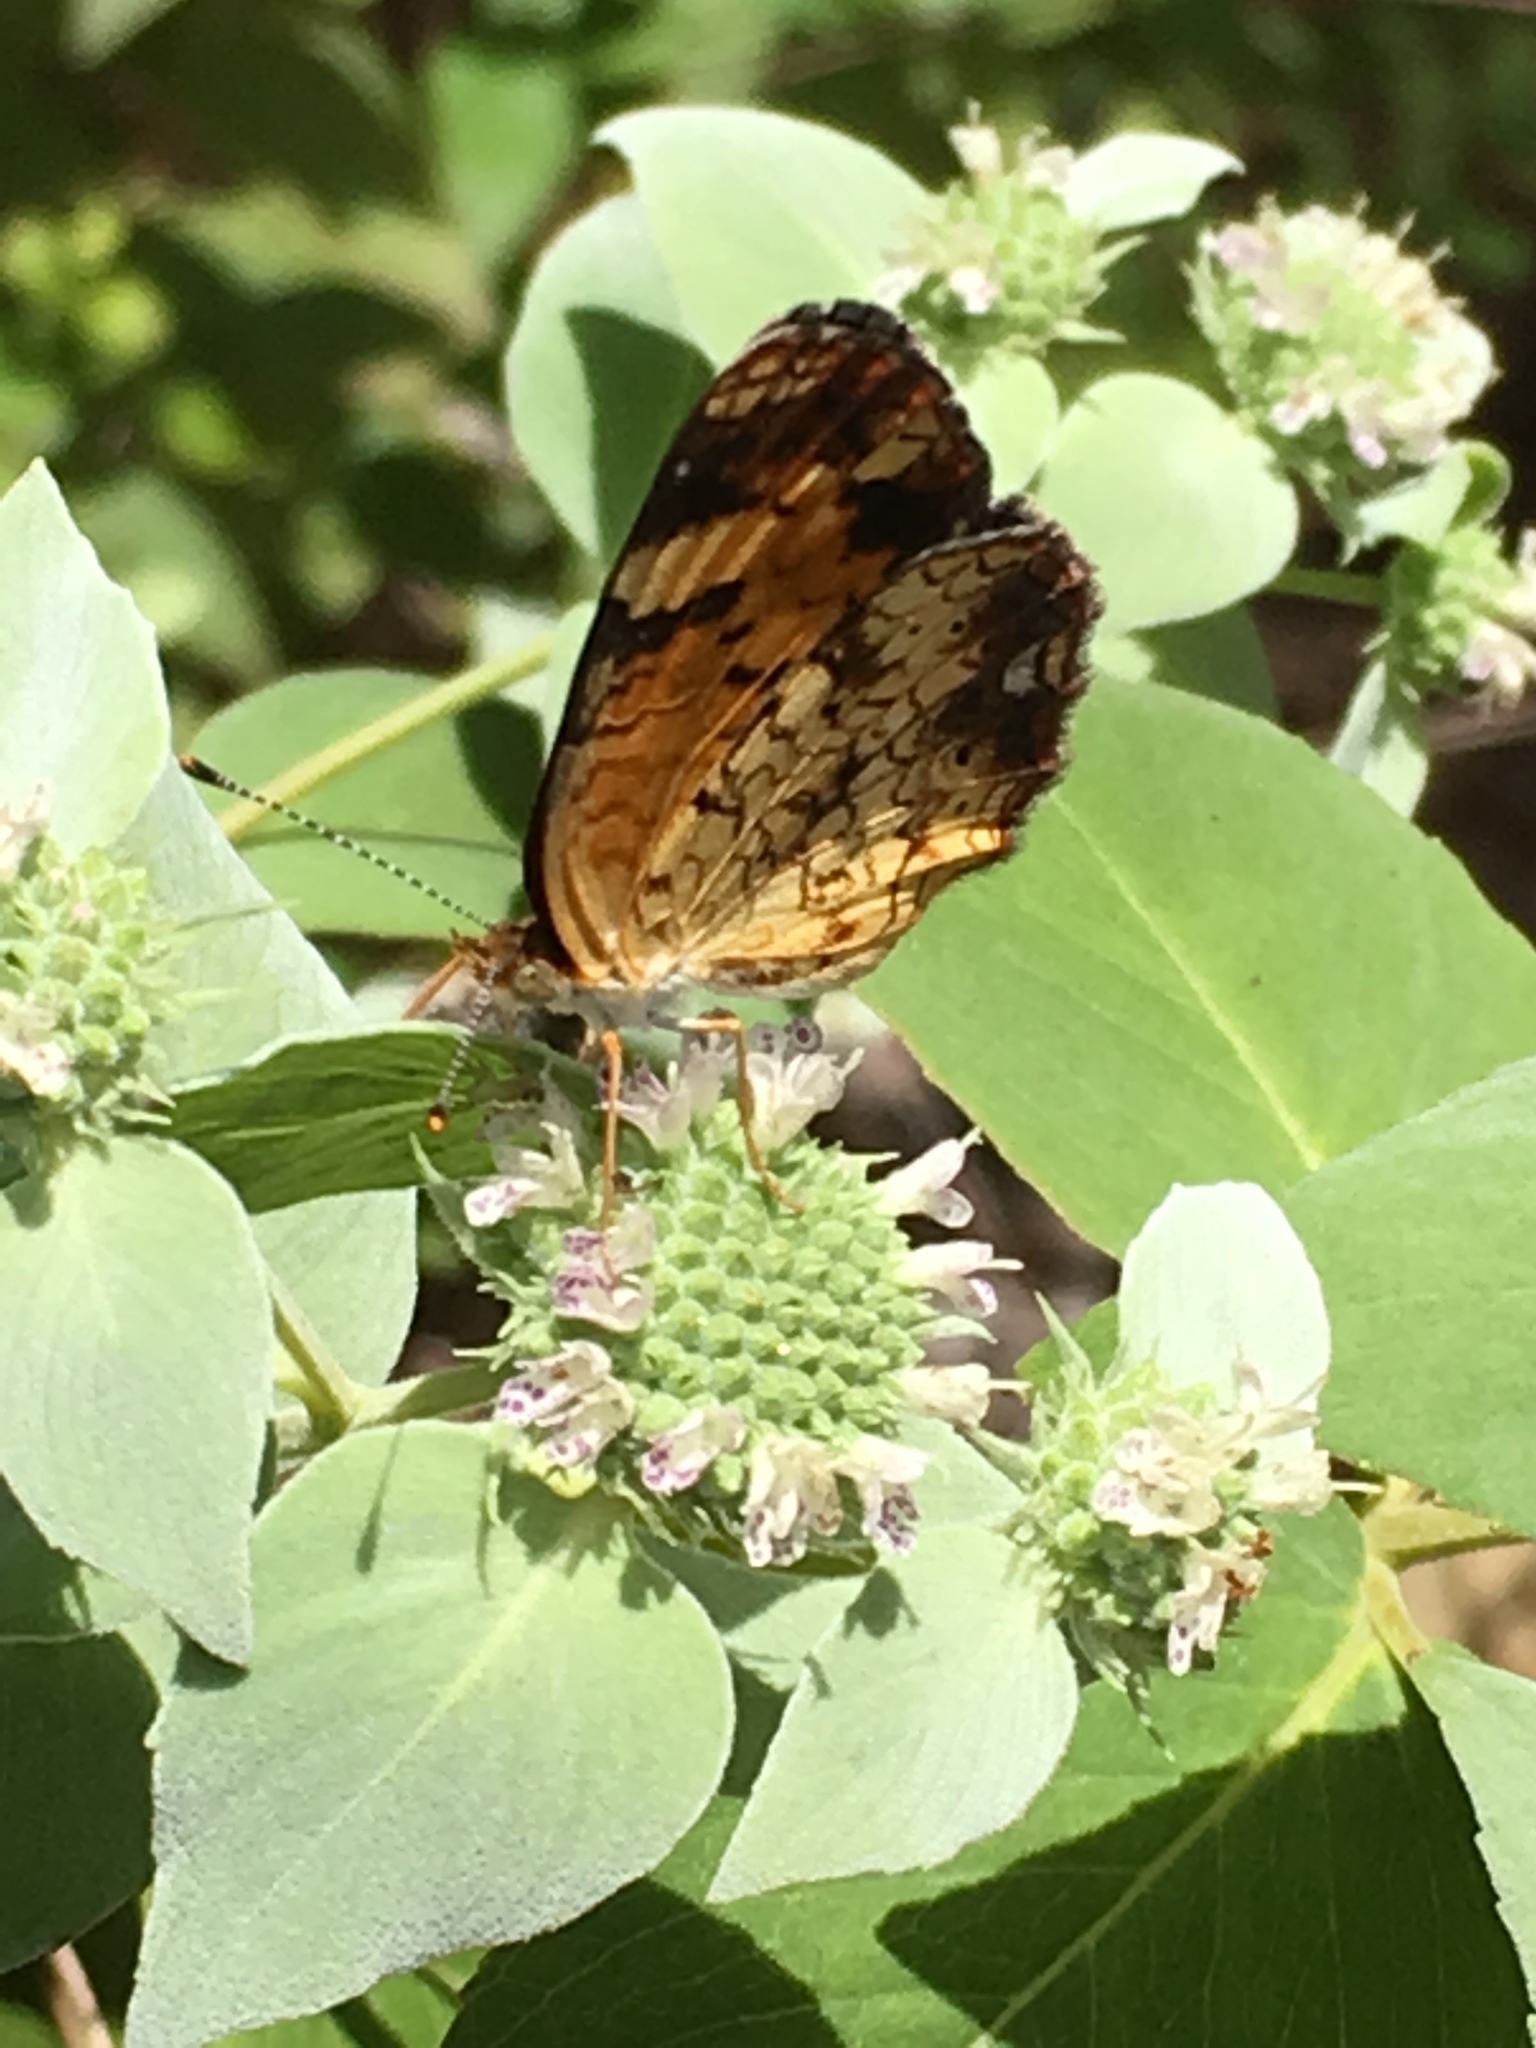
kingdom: Animalia
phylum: Arthropoda
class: Insecta
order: Lepidoptera
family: Nymphalidae
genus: Phyciodes
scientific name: Phyciodes tharos
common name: Pearl crescent
